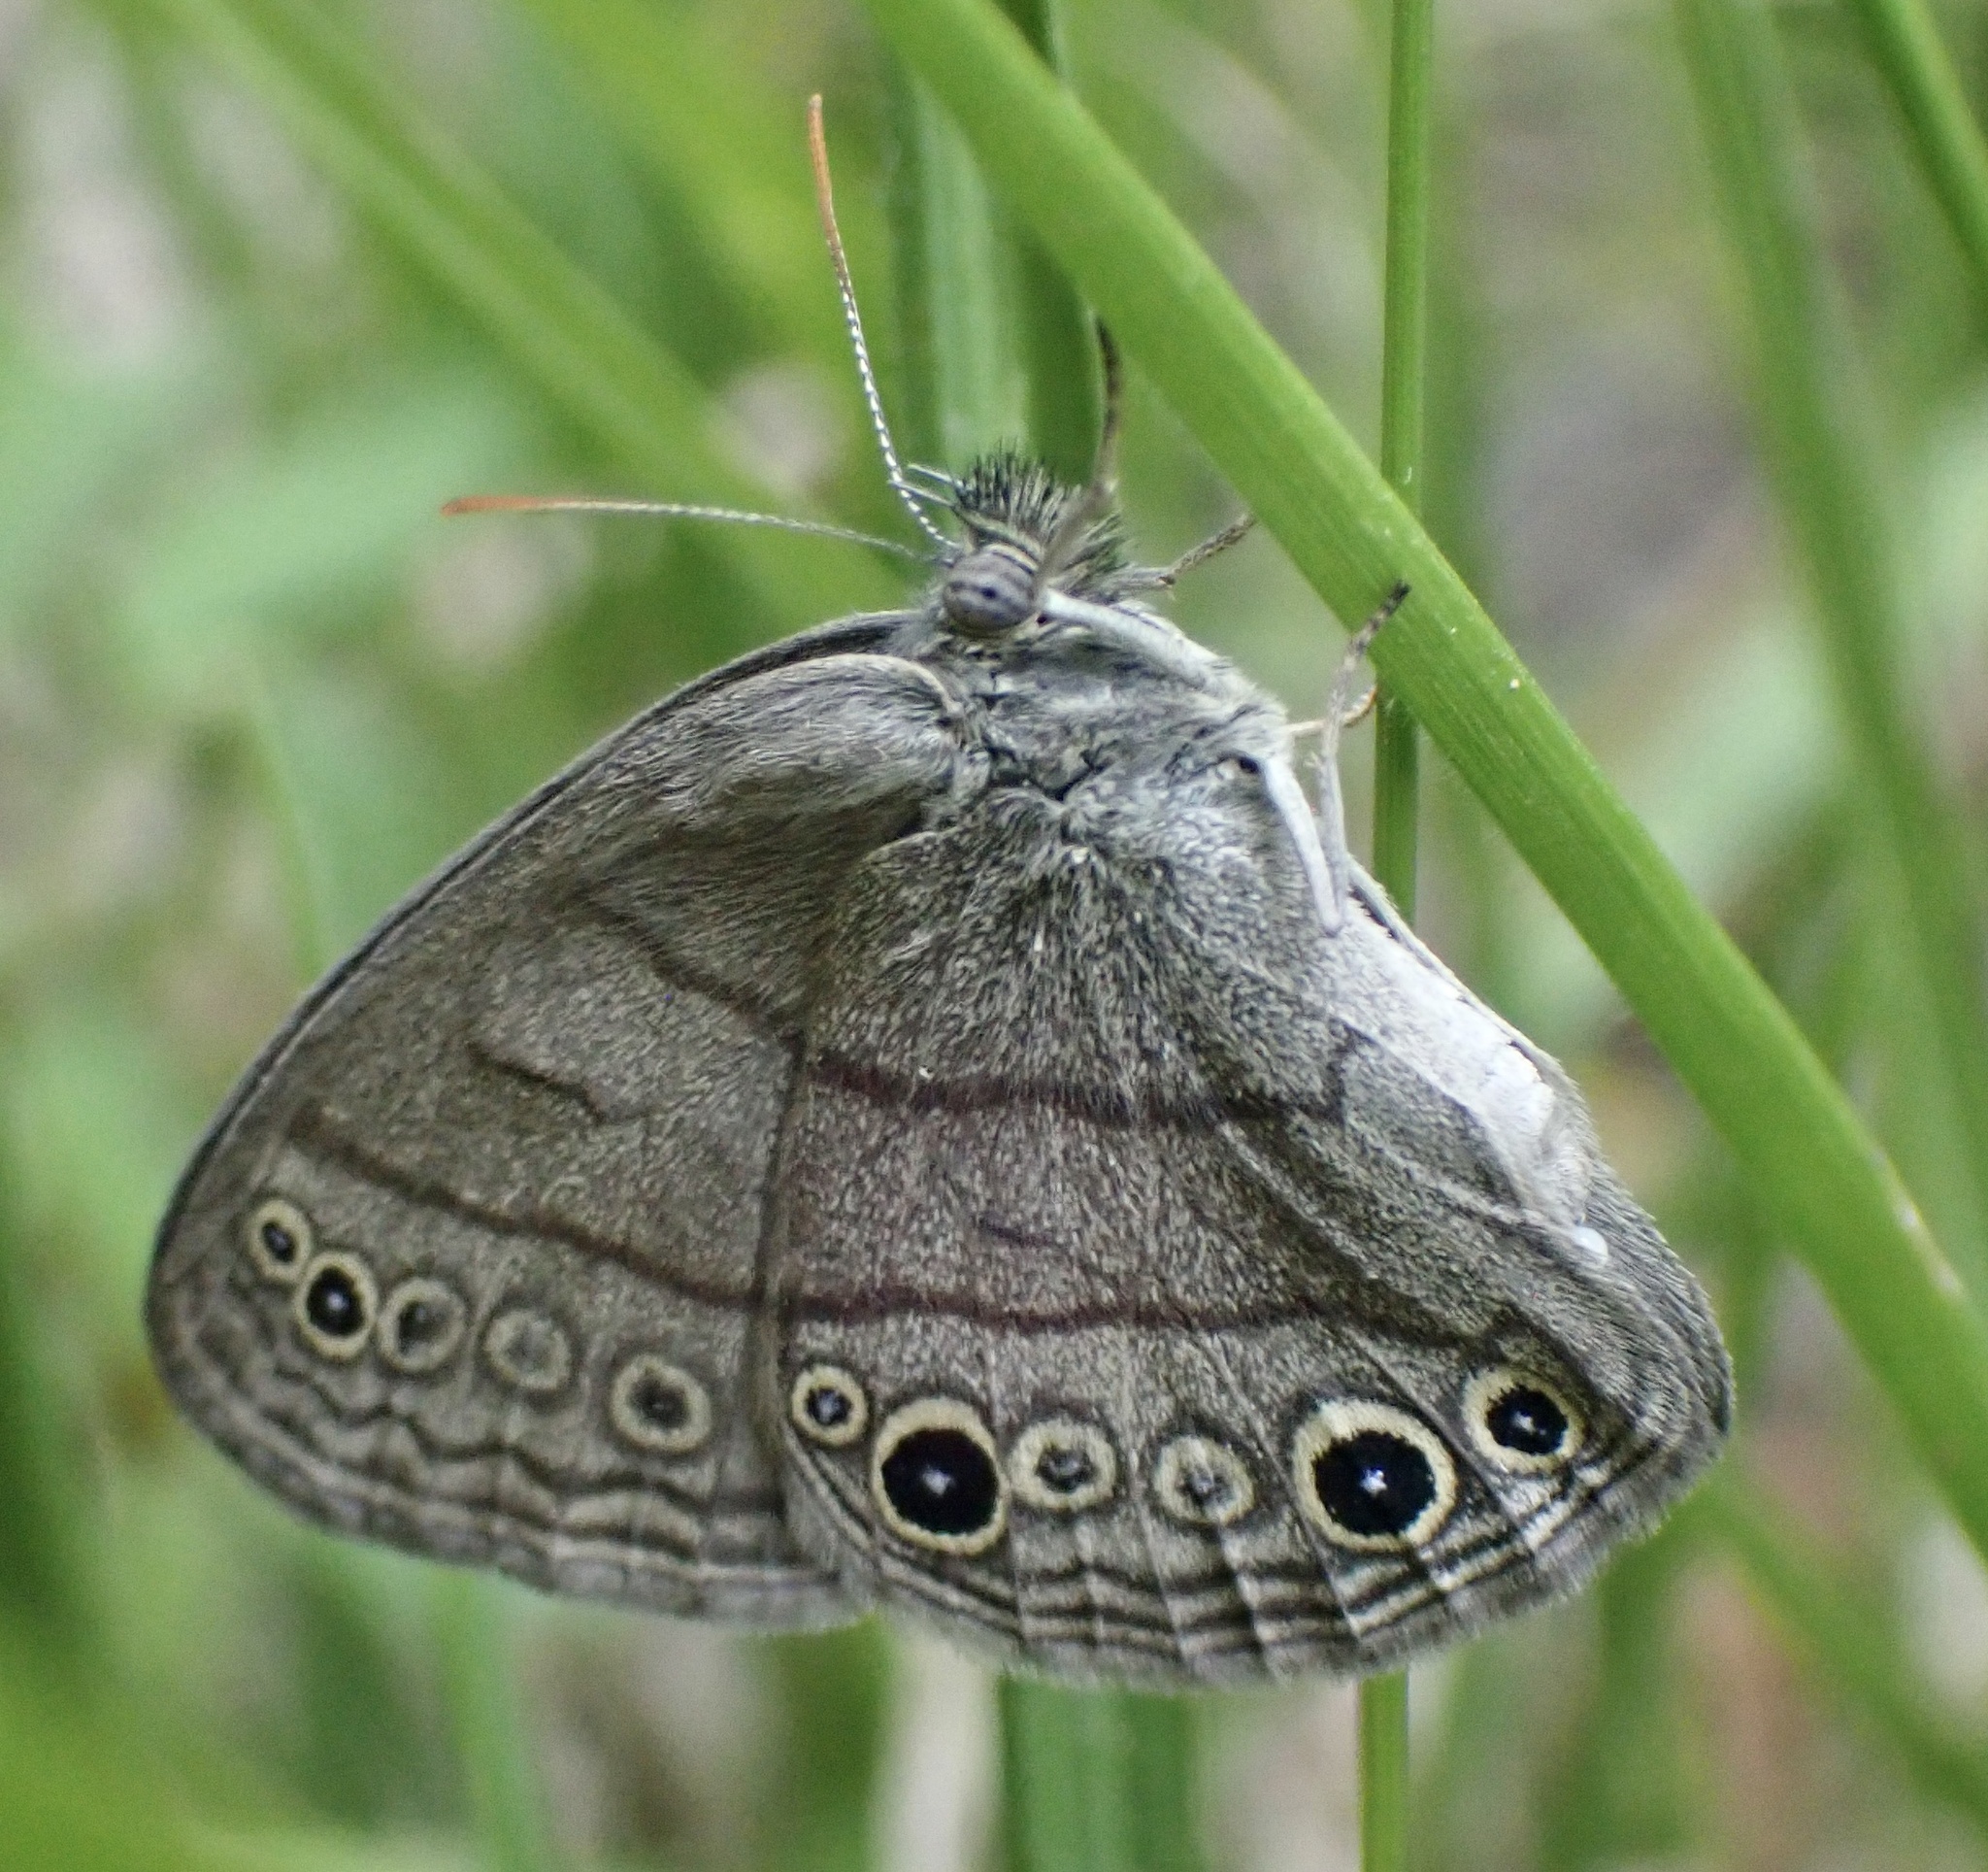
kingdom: Animalia
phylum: Arthropoda
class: Insecta
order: Lepidoptera
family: Nymphalidae
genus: Hermeuptychia
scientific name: Hermeuptychia hermes
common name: Hermes satyr
